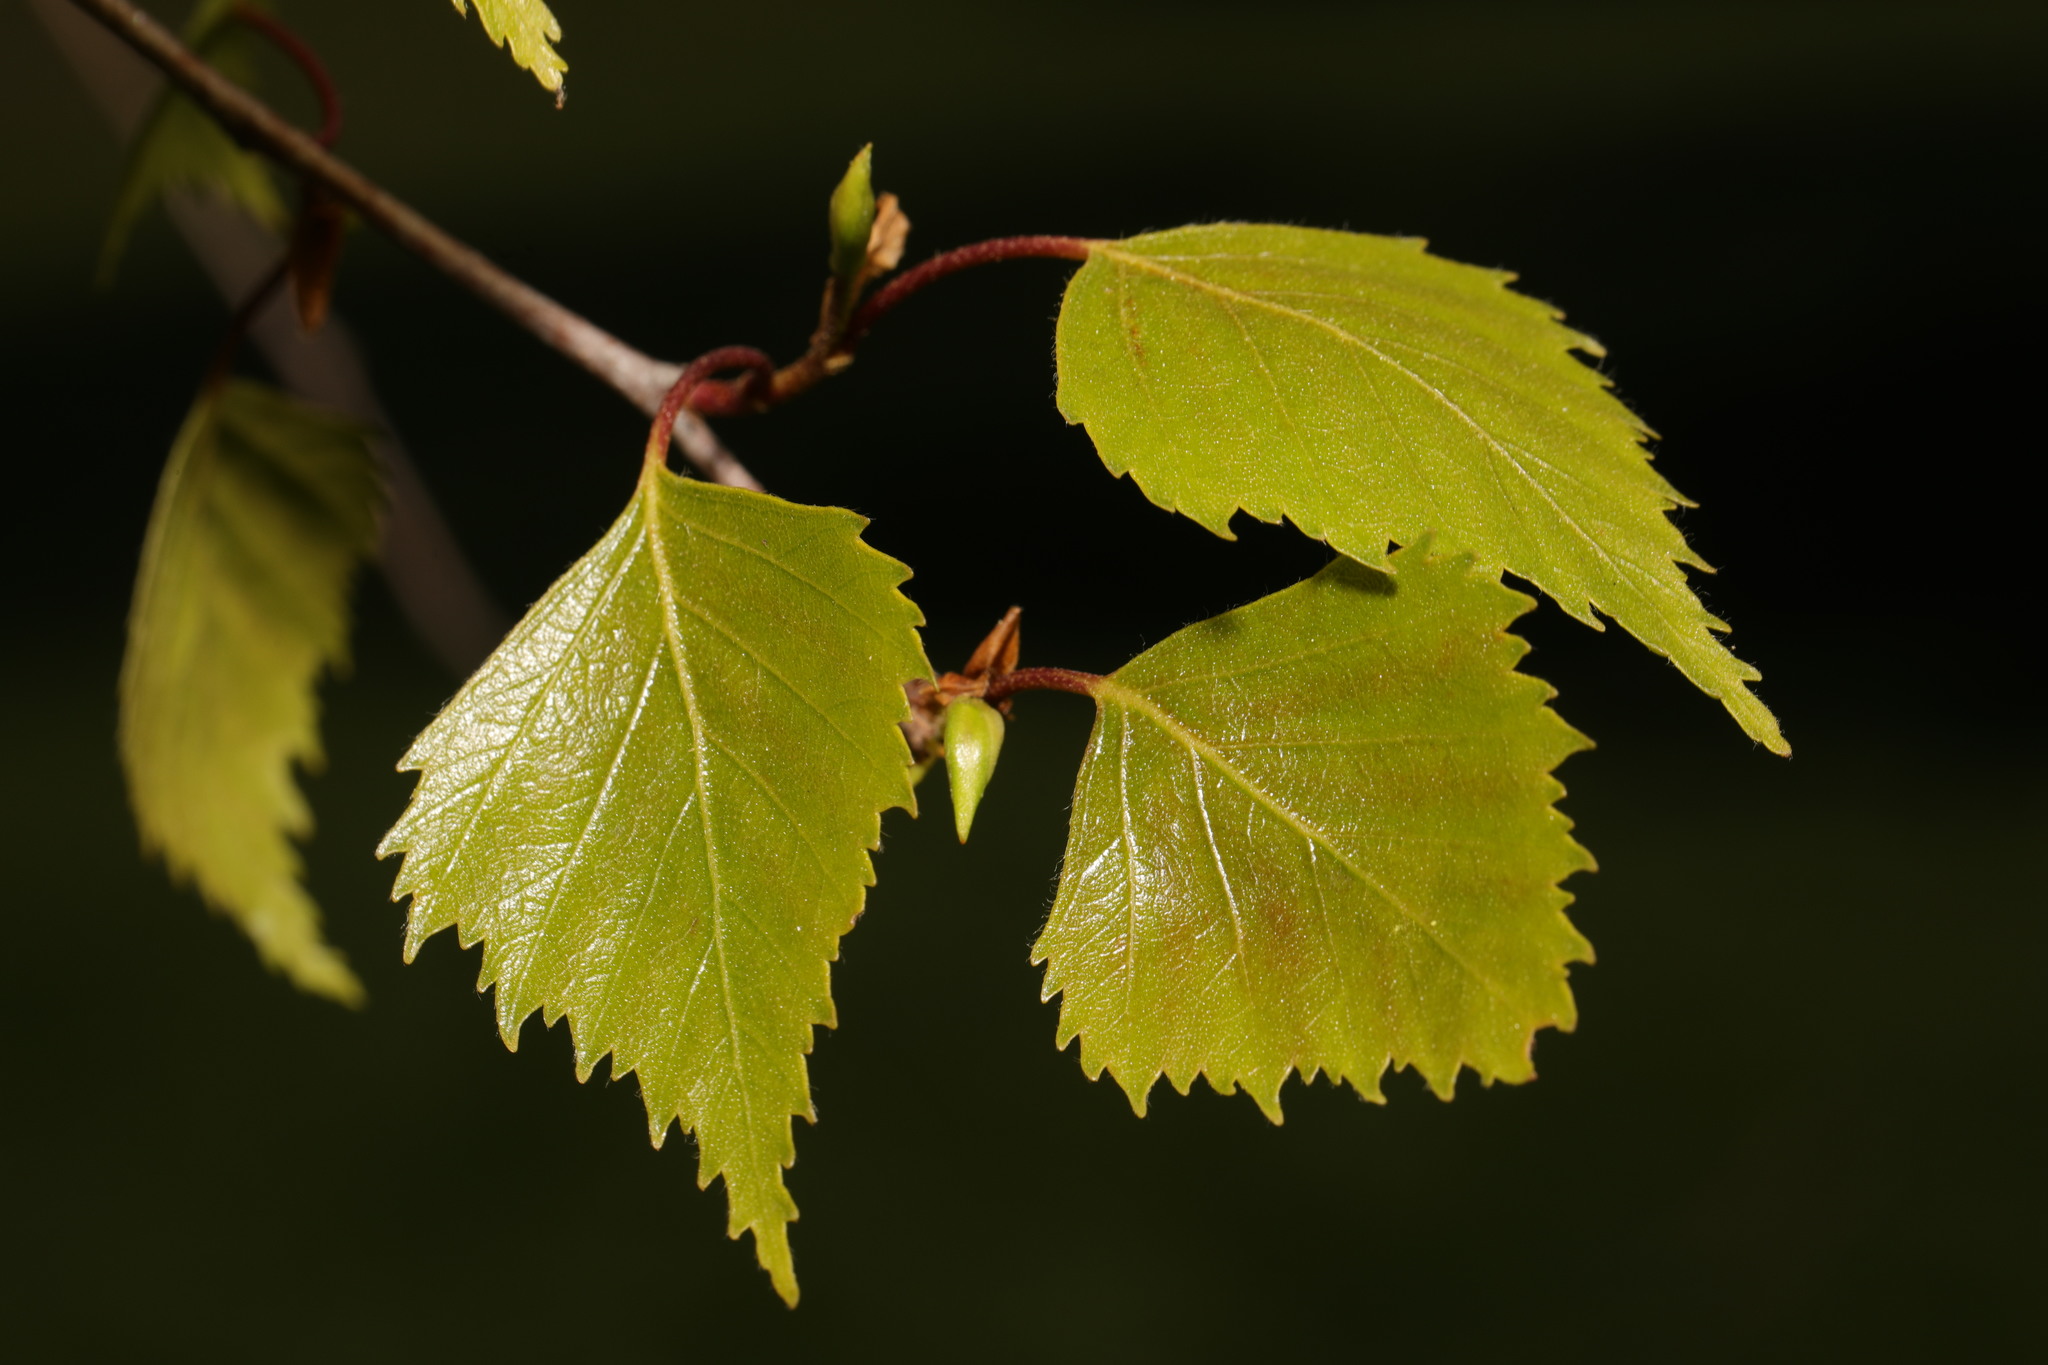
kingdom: Plantae
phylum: Tracheophyta
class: Magnoliopsida
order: Fagales
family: Betulaceae
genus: Betula
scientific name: Betula pendula
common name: Silver birch
